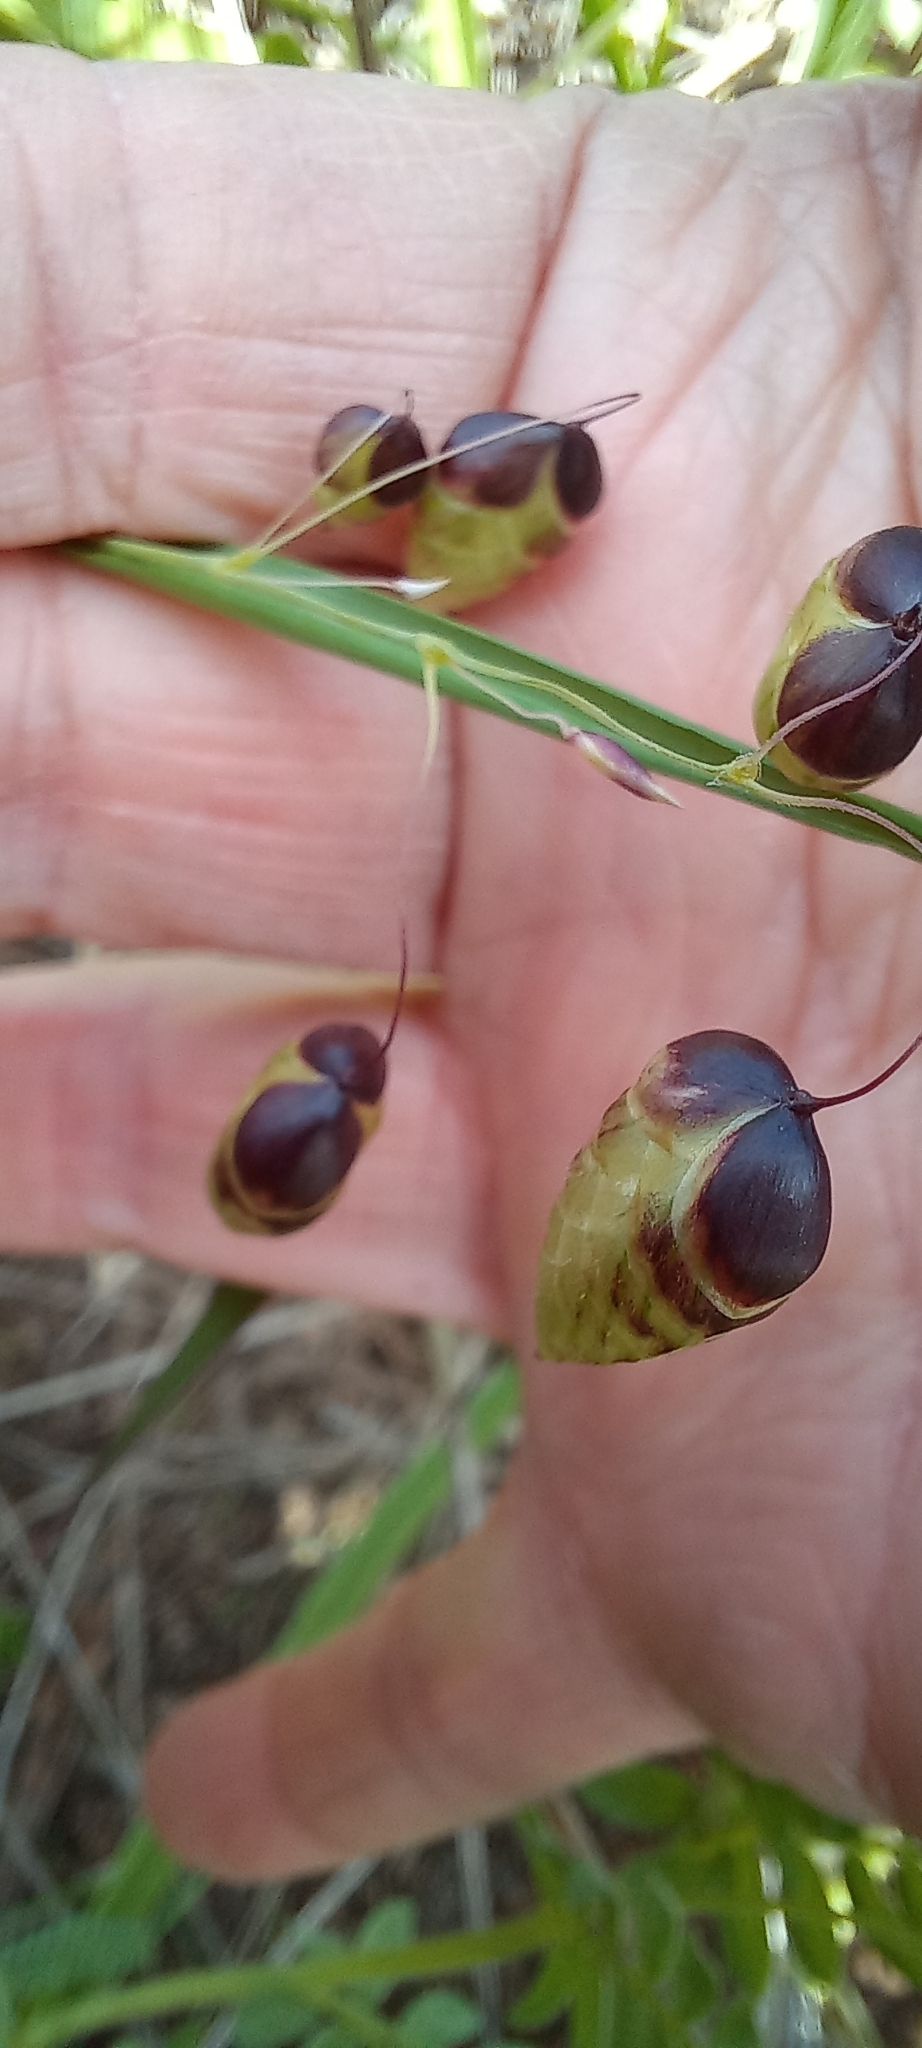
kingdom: Plantae
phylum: Tracheophyta
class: Liliopsida
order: Poales
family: Poaceae
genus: Briza
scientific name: Briza maxima
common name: Big quakinggrass
